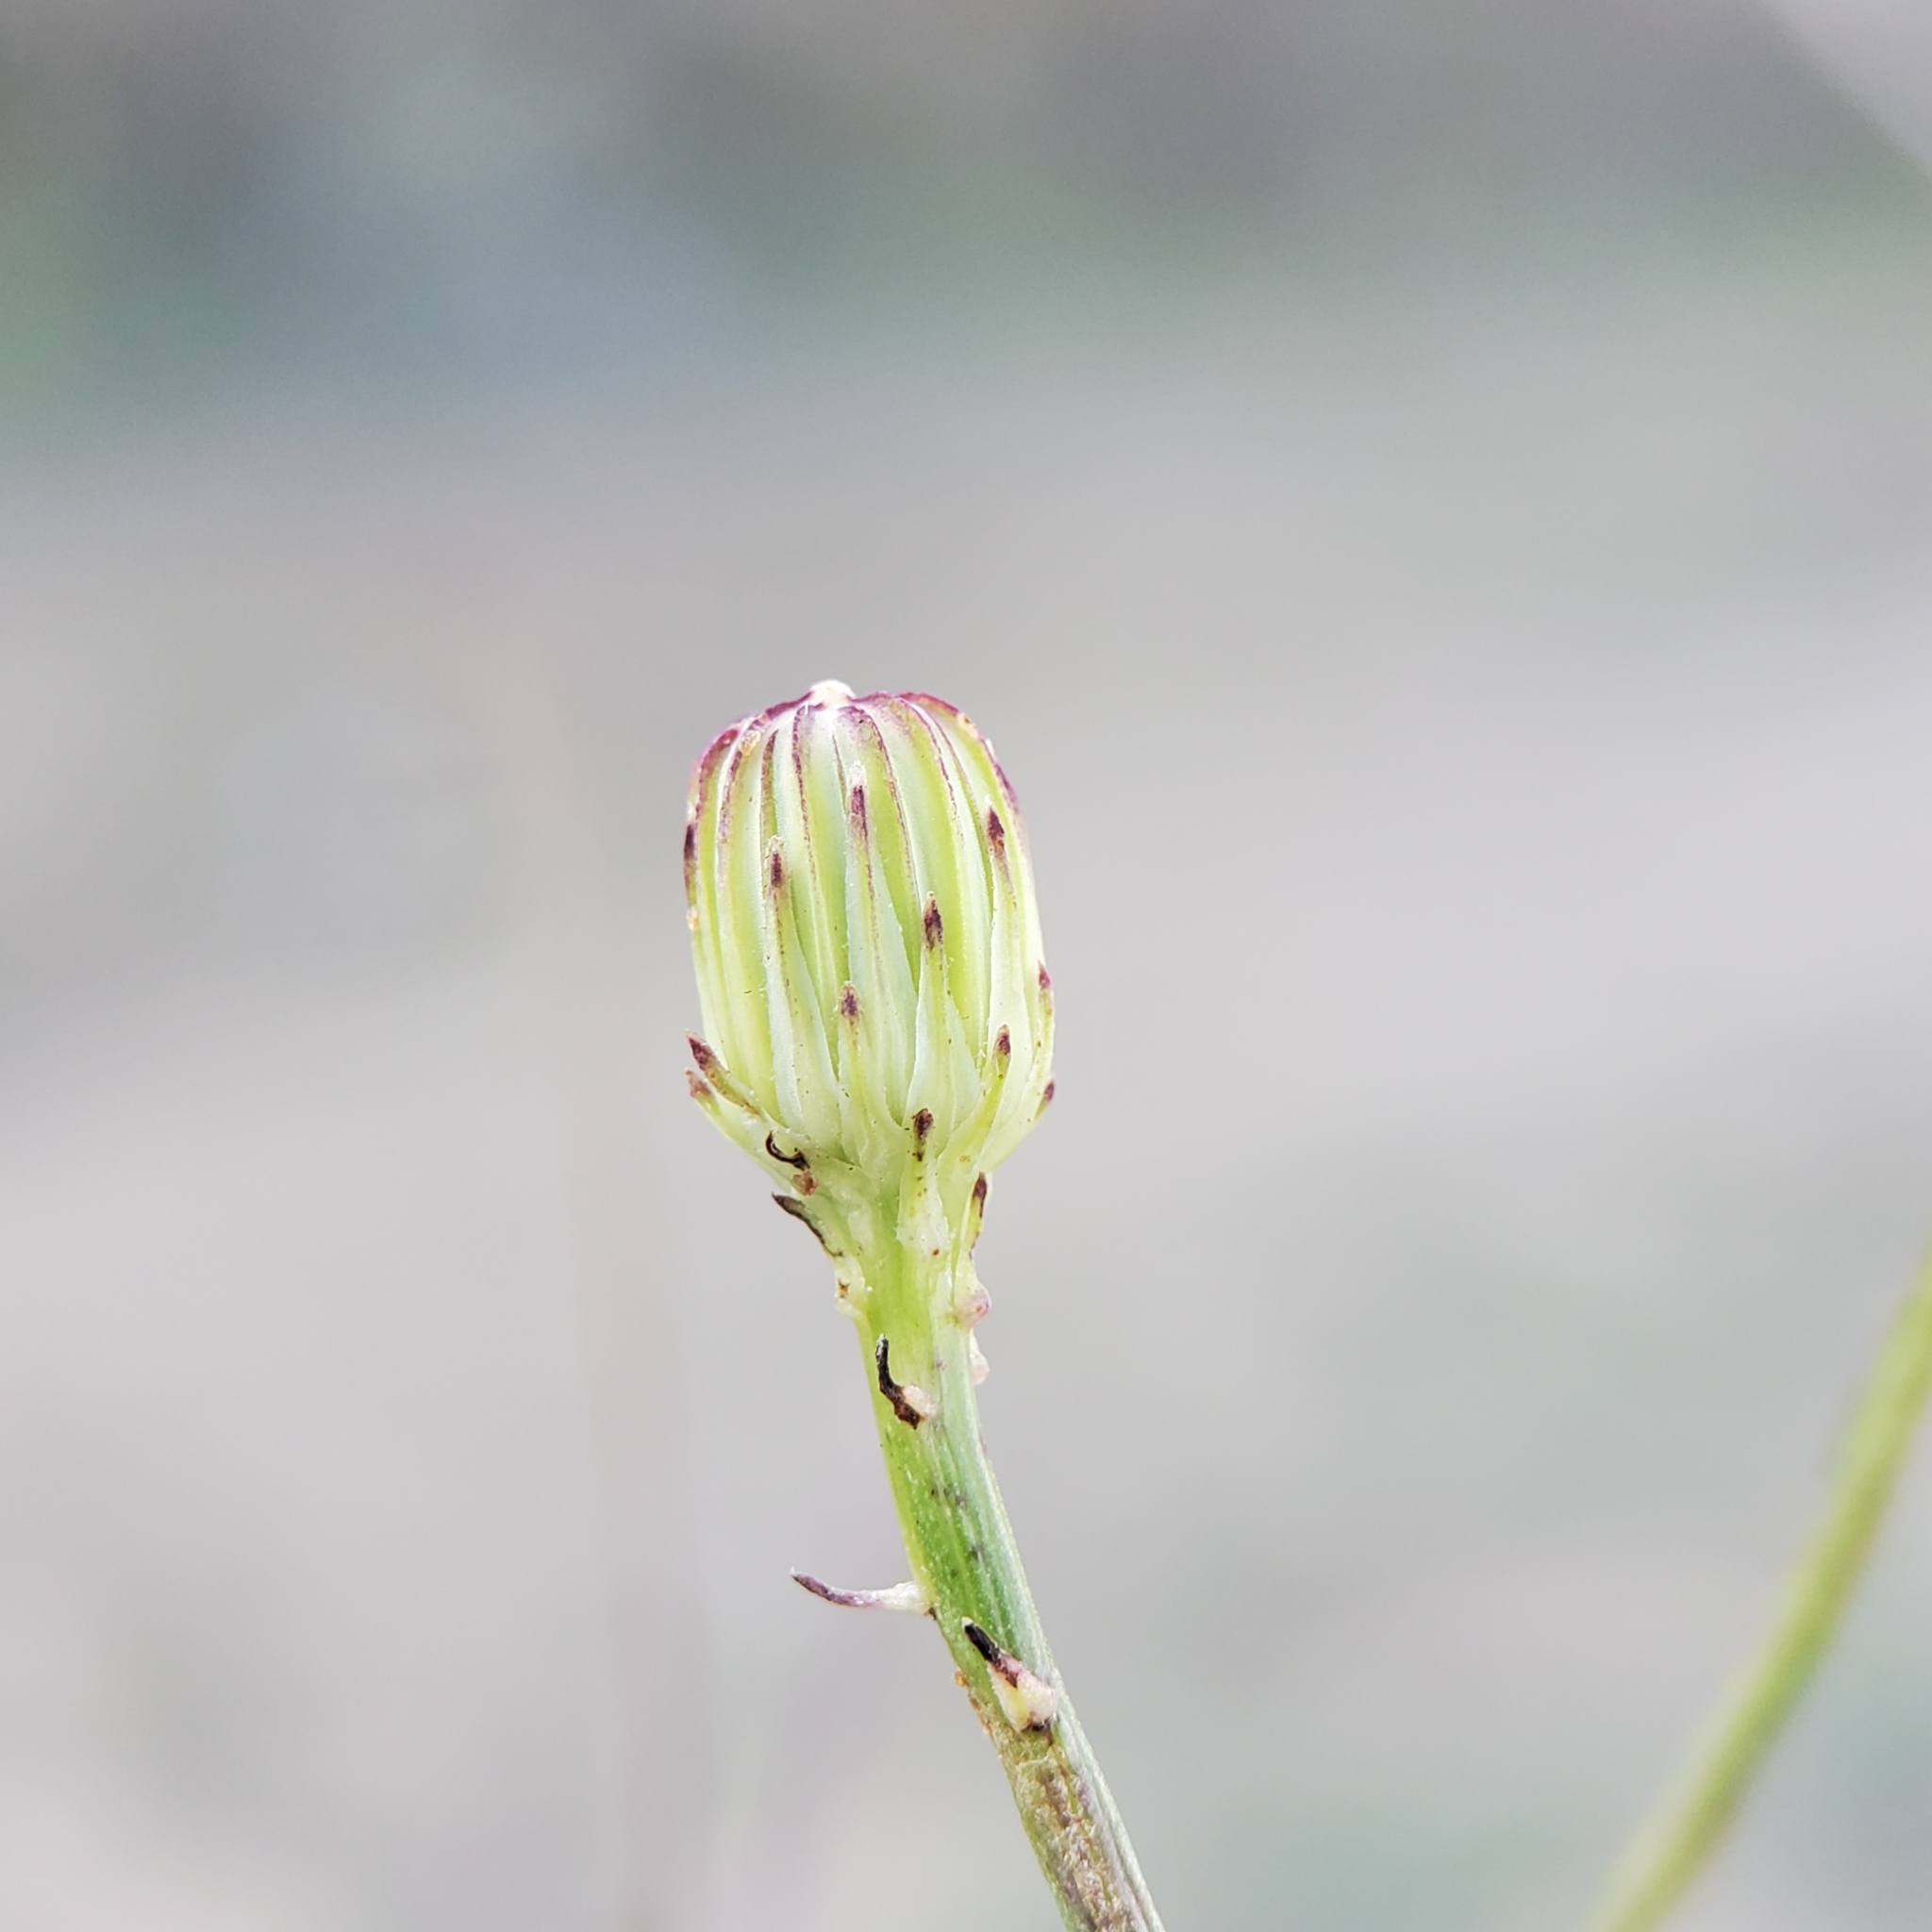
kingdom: Plantae
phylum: Tracheophyta
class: Magnoliopsida
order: Asterales
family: Asteraceae
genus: Malacothrix
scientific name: Malacothrix saxatilis
